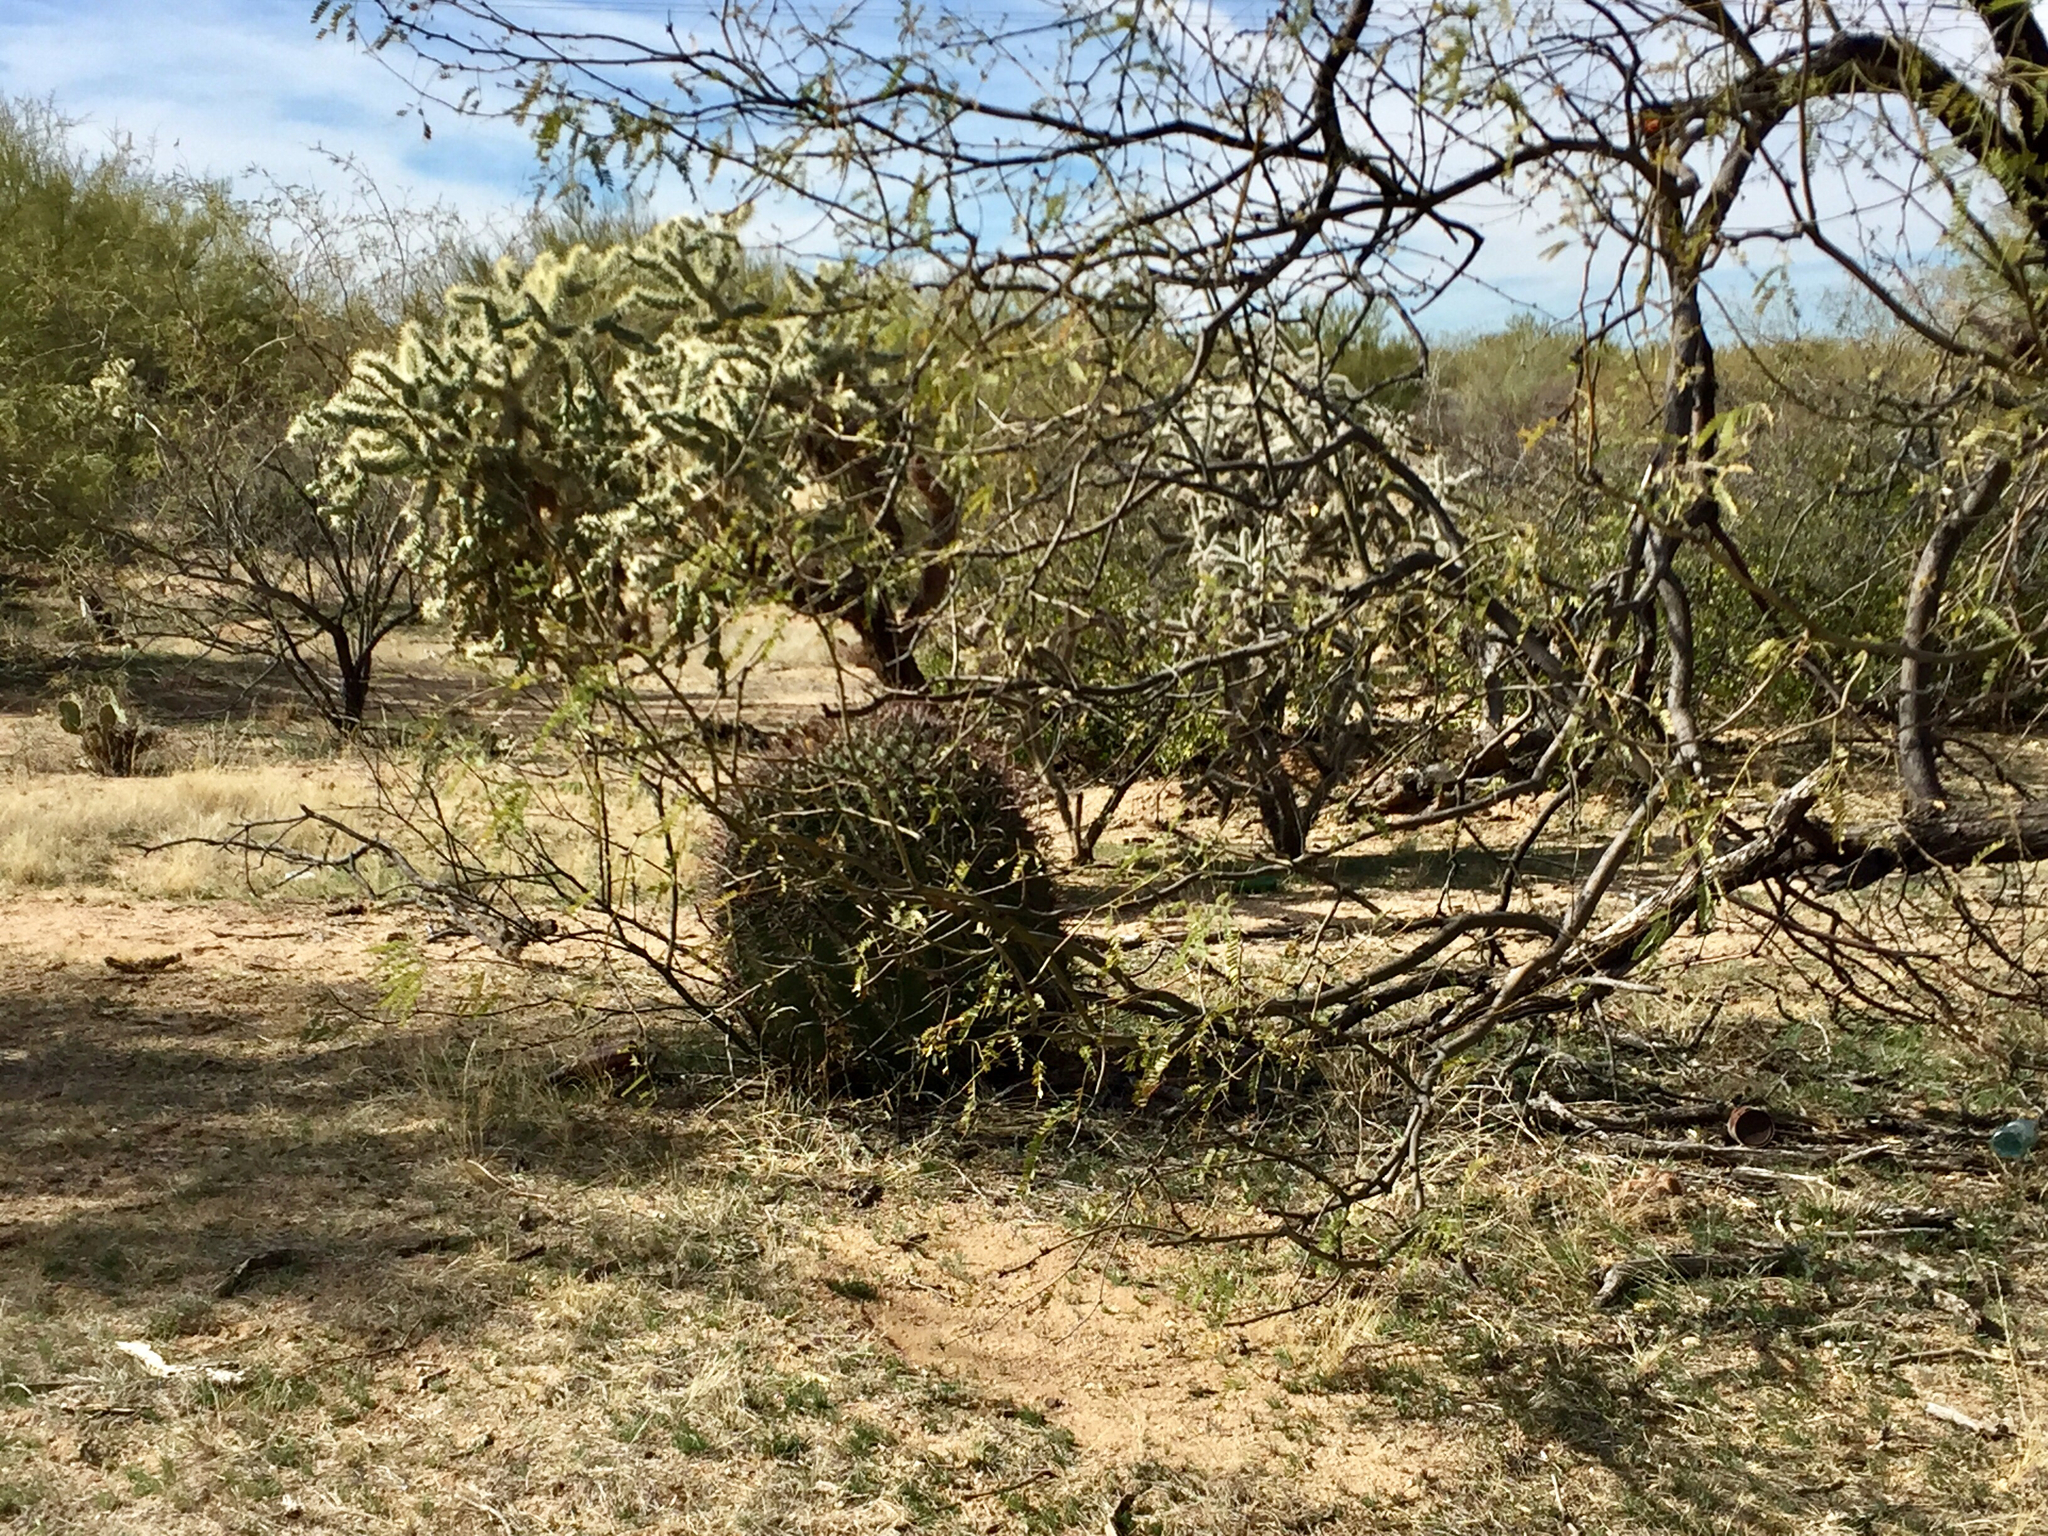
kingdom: Plantae
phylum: Tracheophyta
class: Magnoliopsida
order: Caryophyllales
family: Cactaceae
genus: Ferocactus
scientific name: Ferocactus wislizeni
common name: Candy barrel cactus
